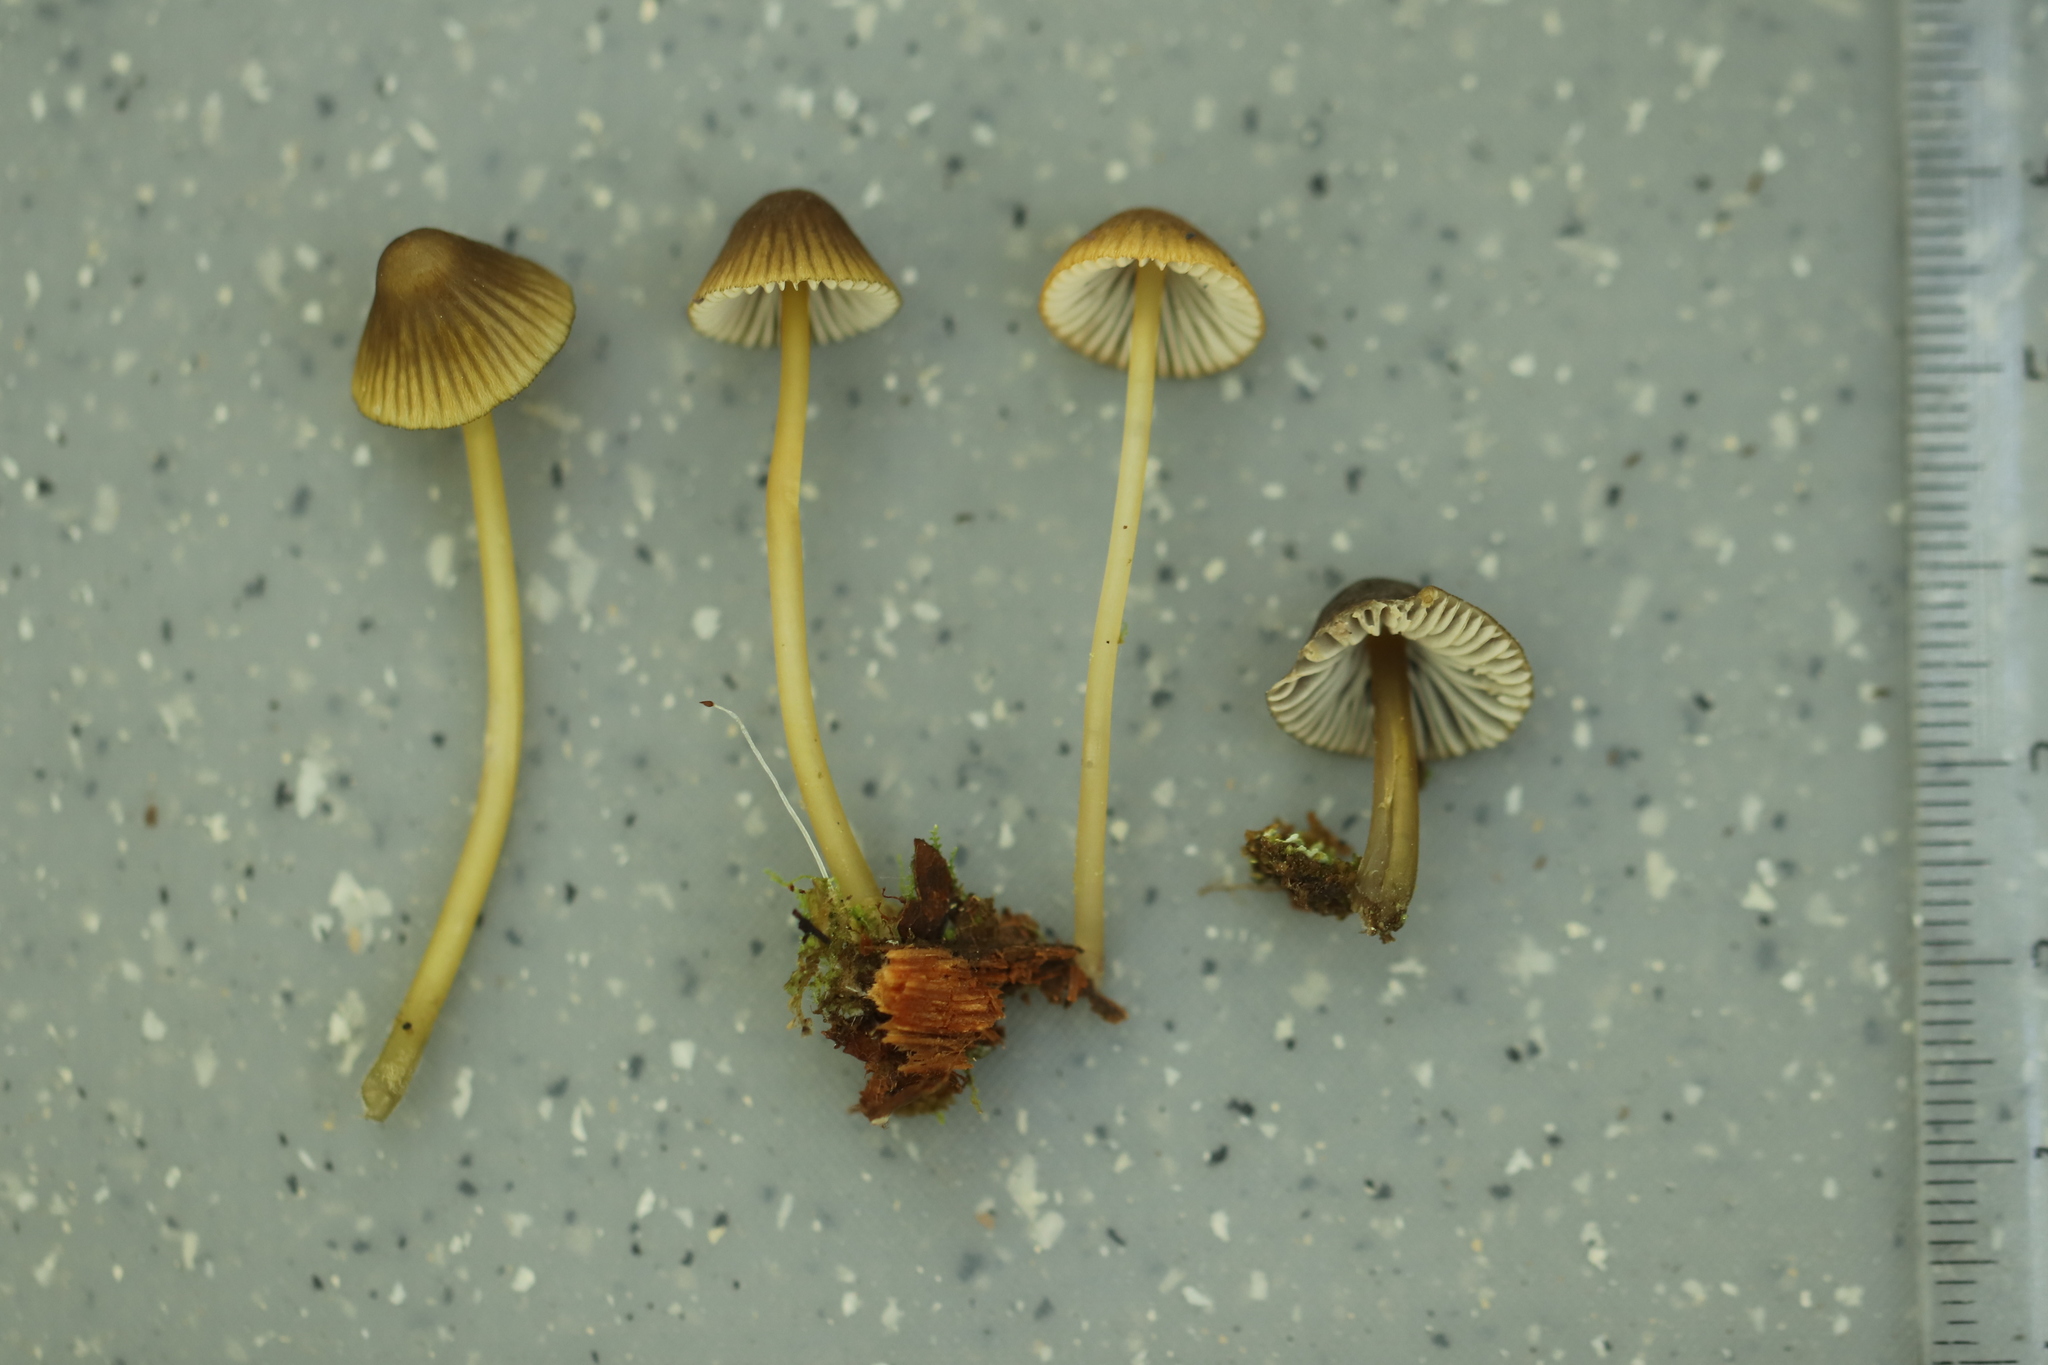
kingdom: Fungi
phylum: Basidiomycota
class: Agaricomycetes
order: Agaricales
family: Mycenaceae
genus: Mycena
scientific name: Mycena viridimarginata
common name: Olive edge bonnet
